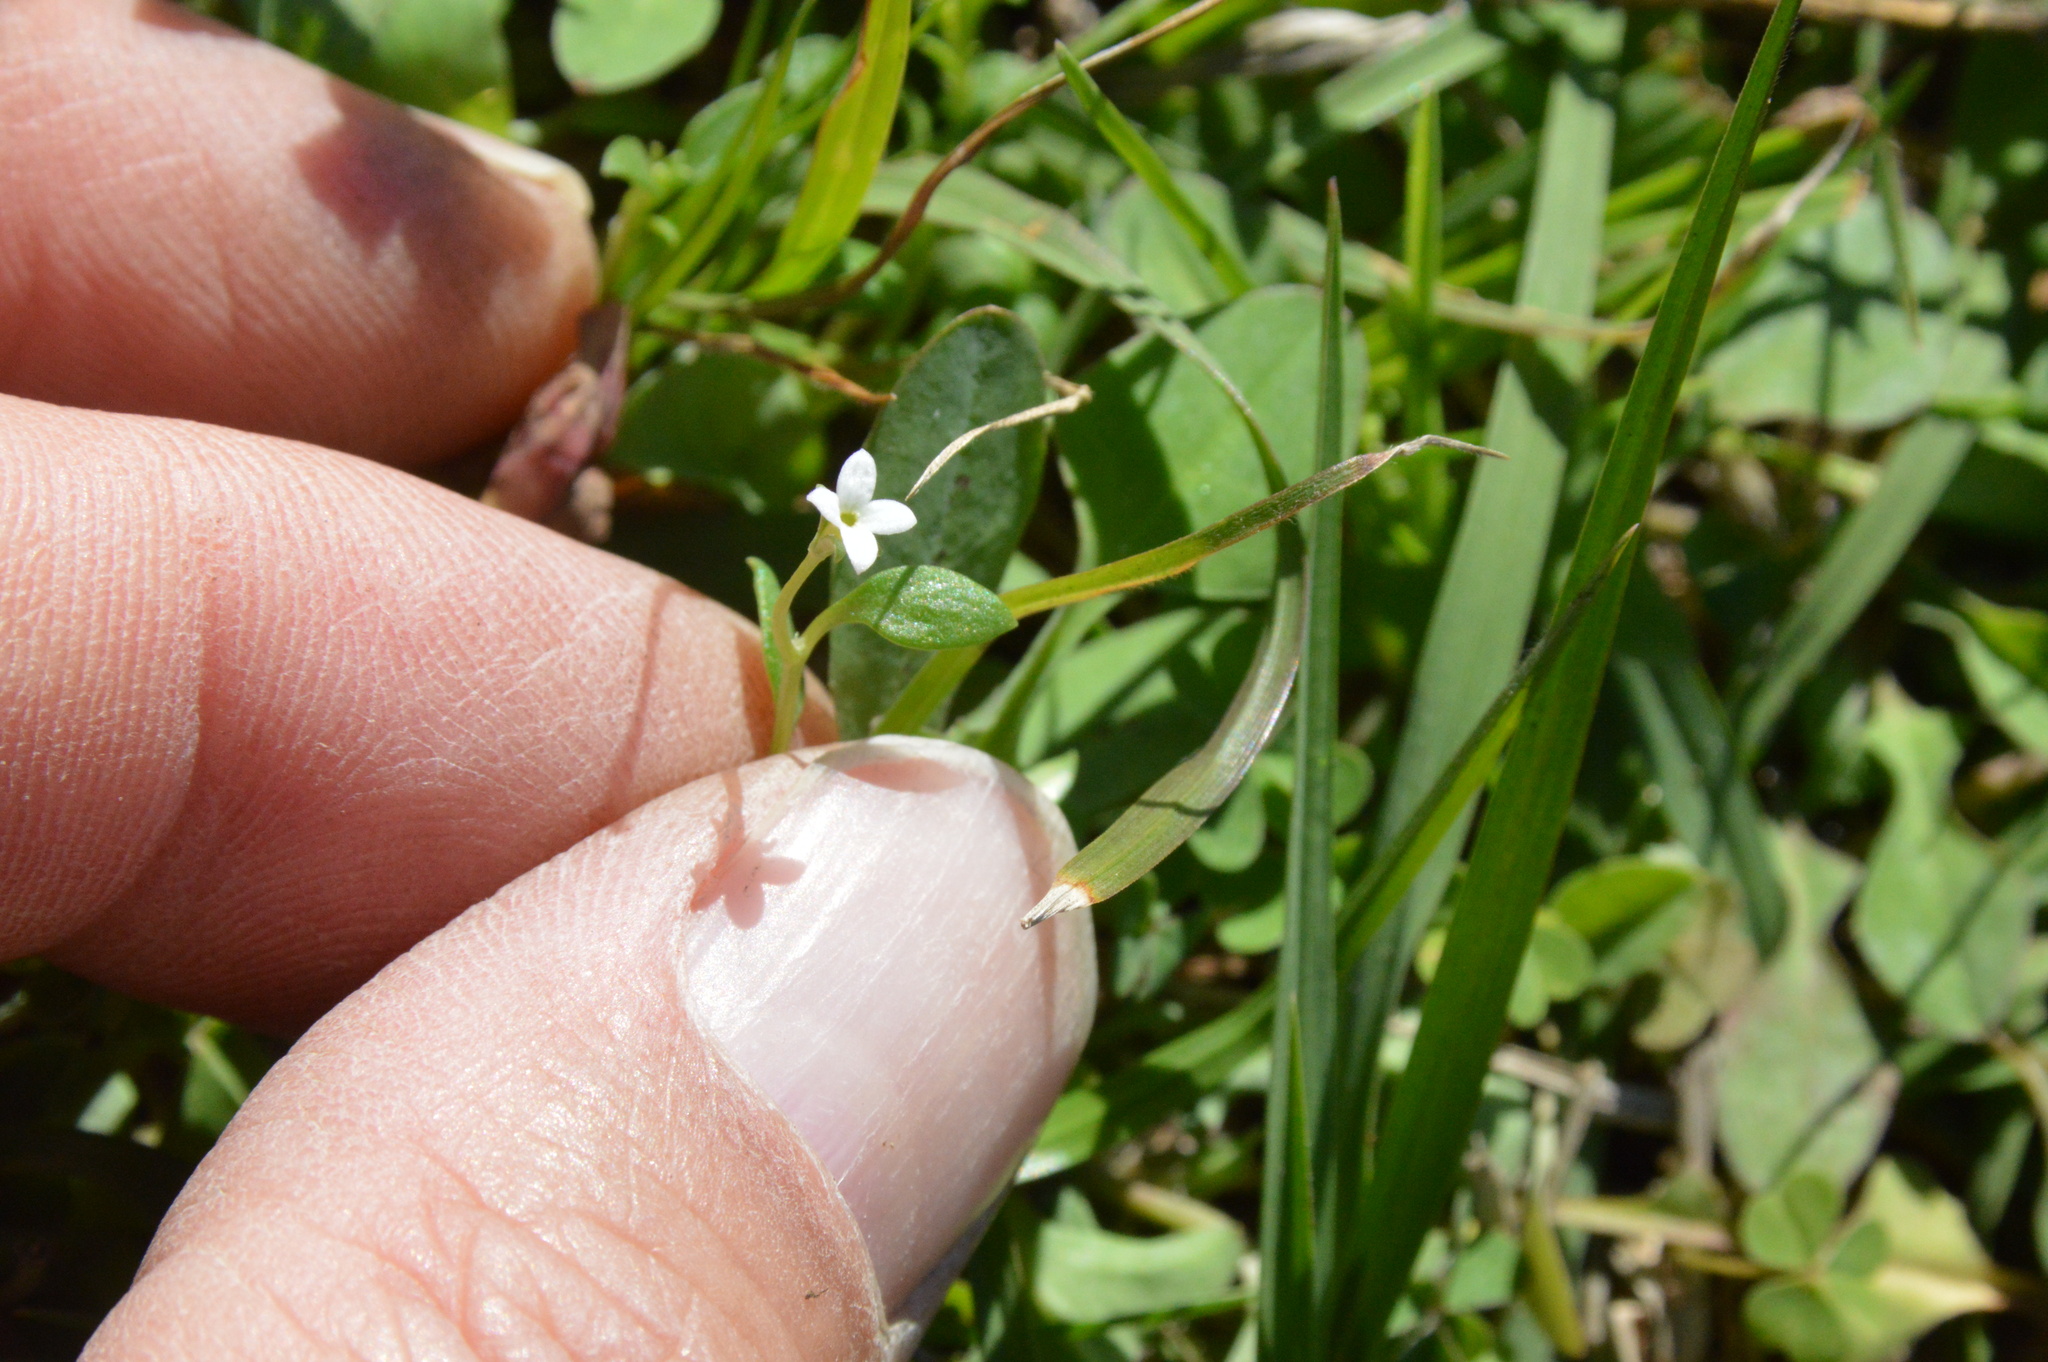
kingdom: Plantae
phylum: Tracheophyta
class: Magnoliopsida
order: Gentianales
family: Rubiaceae
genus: Houstonia
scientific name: Houstonia micrantha
